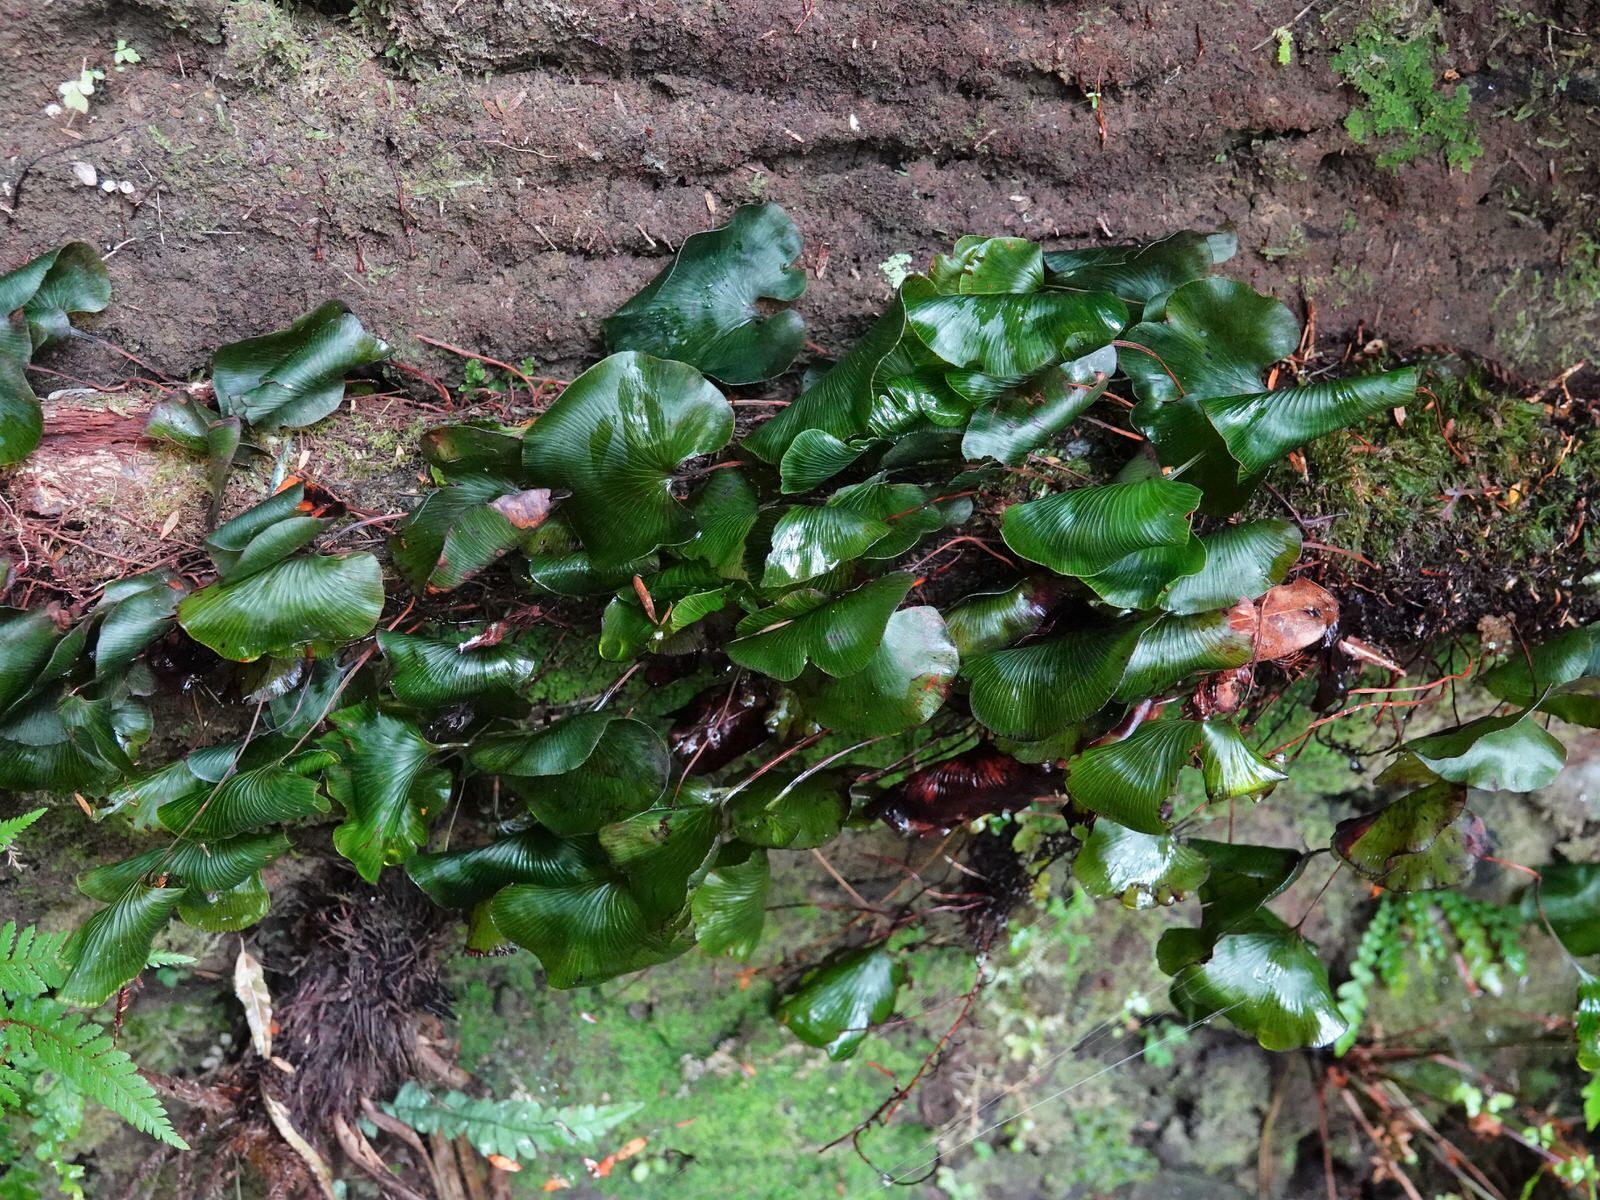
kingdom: Plantae
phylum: Tracheophyta
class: Polypodiopsida
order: Hymenophyllales
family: Hymenophyllaceae
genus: Hymenophyllum
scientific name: Hymenophyllum nephrophyllum
